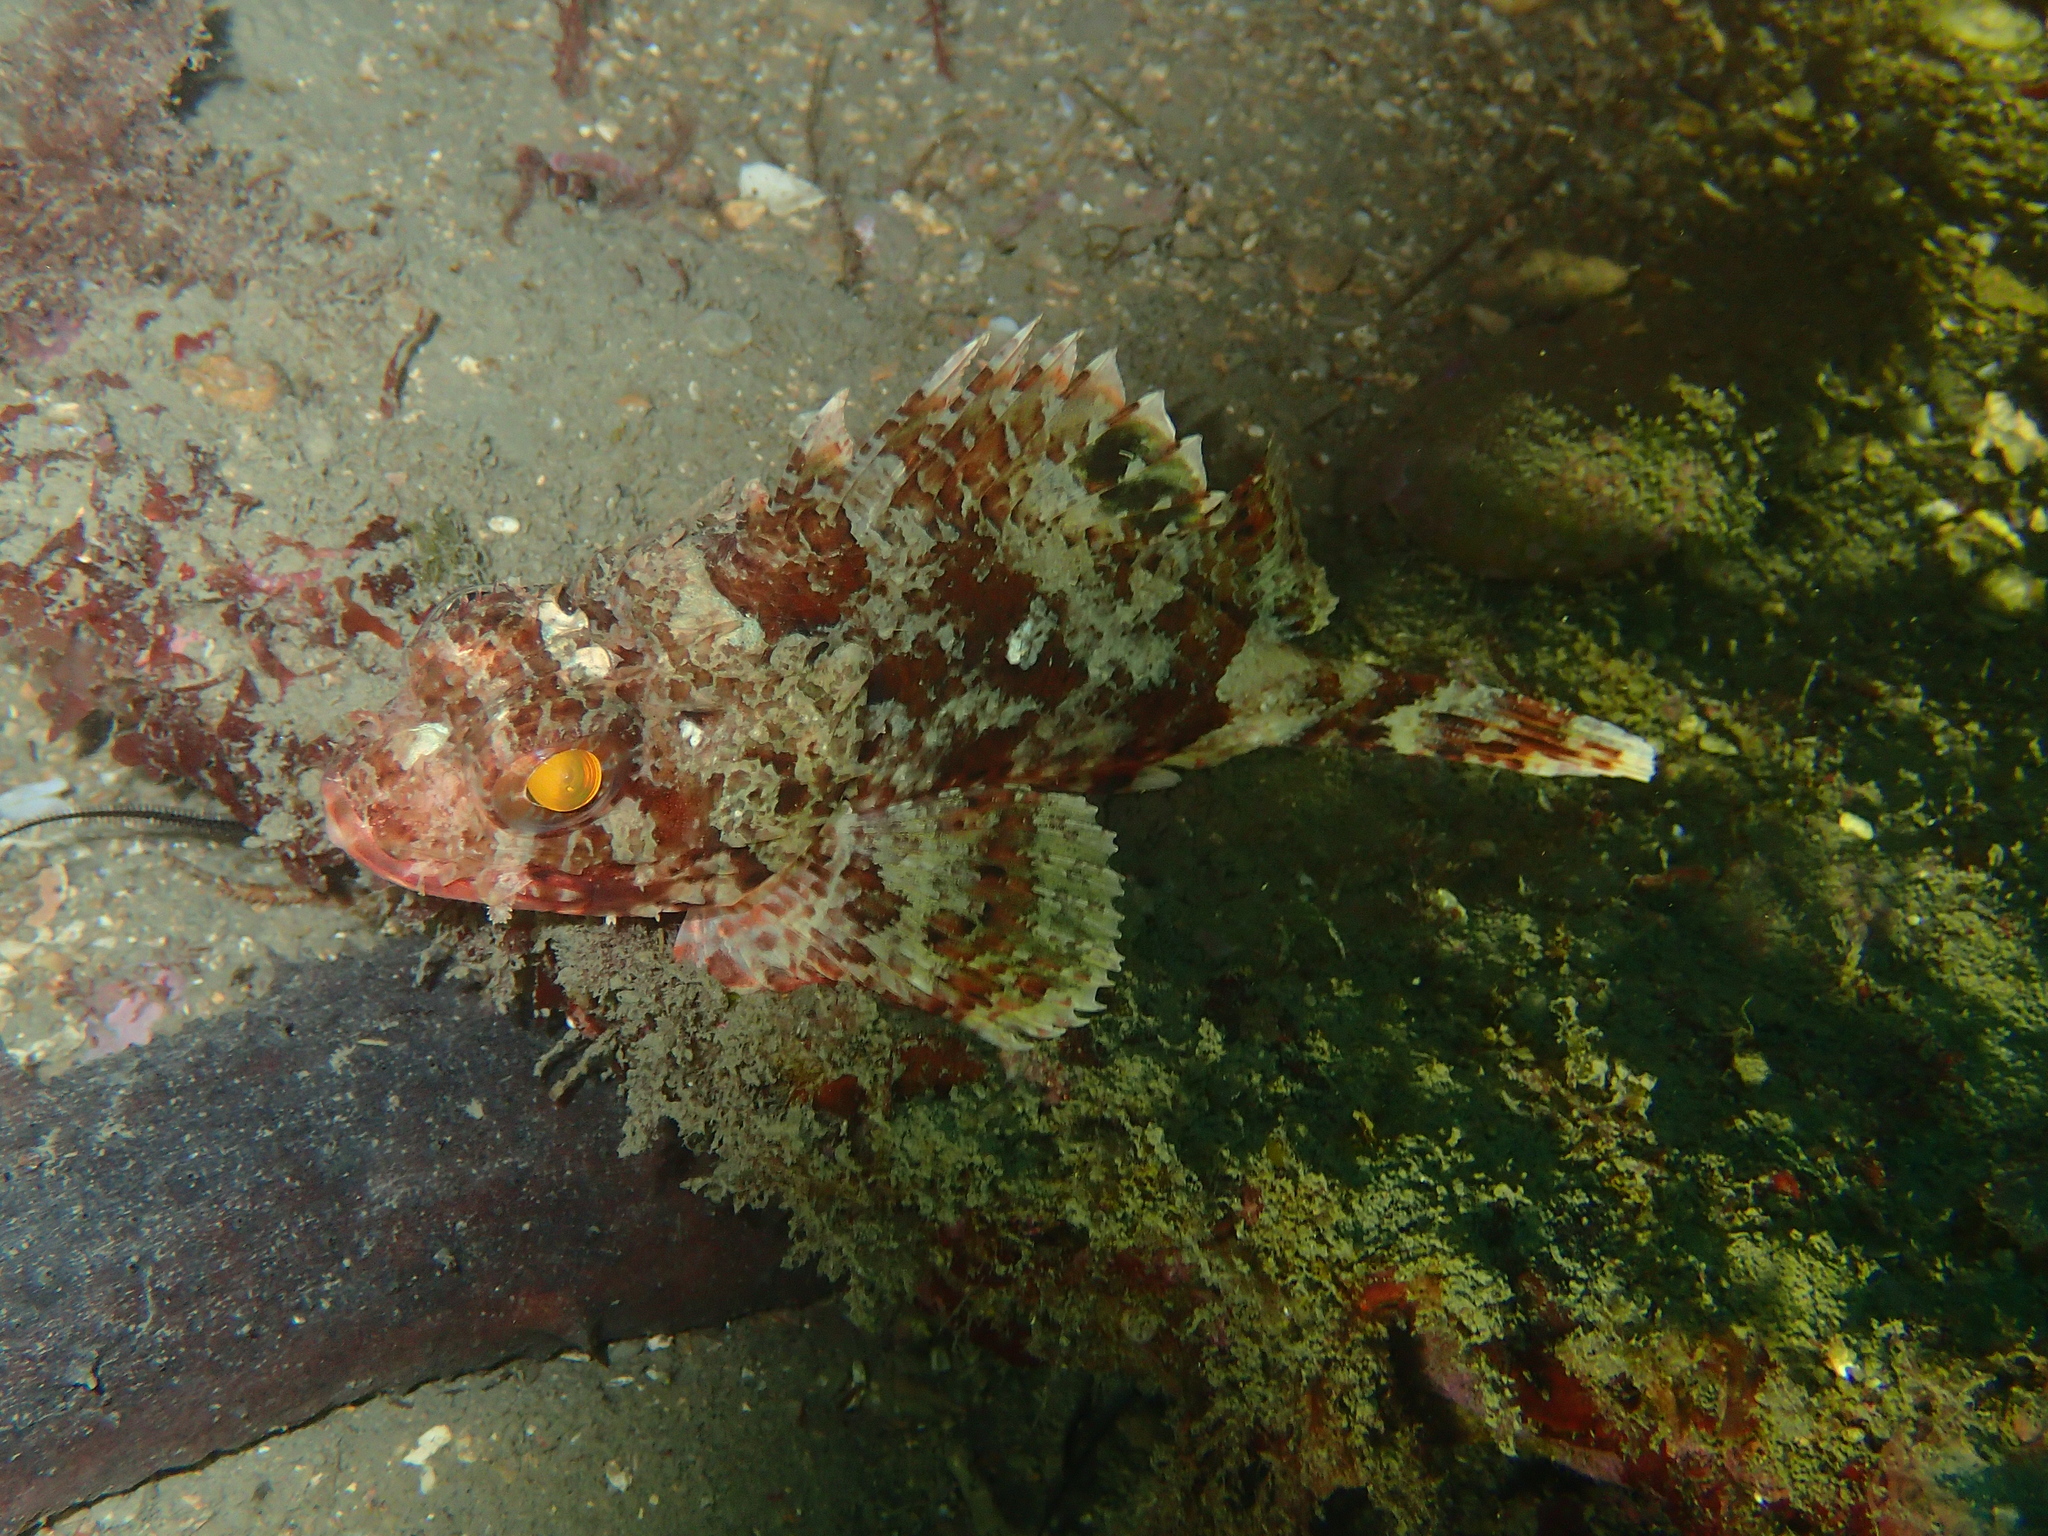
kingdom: Animalia
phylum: Chordata
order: Scorpaeniformes
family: Scorpaenidae
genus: Scorpaena
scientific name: Scorpaena notata
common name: Small red scorpionfish
